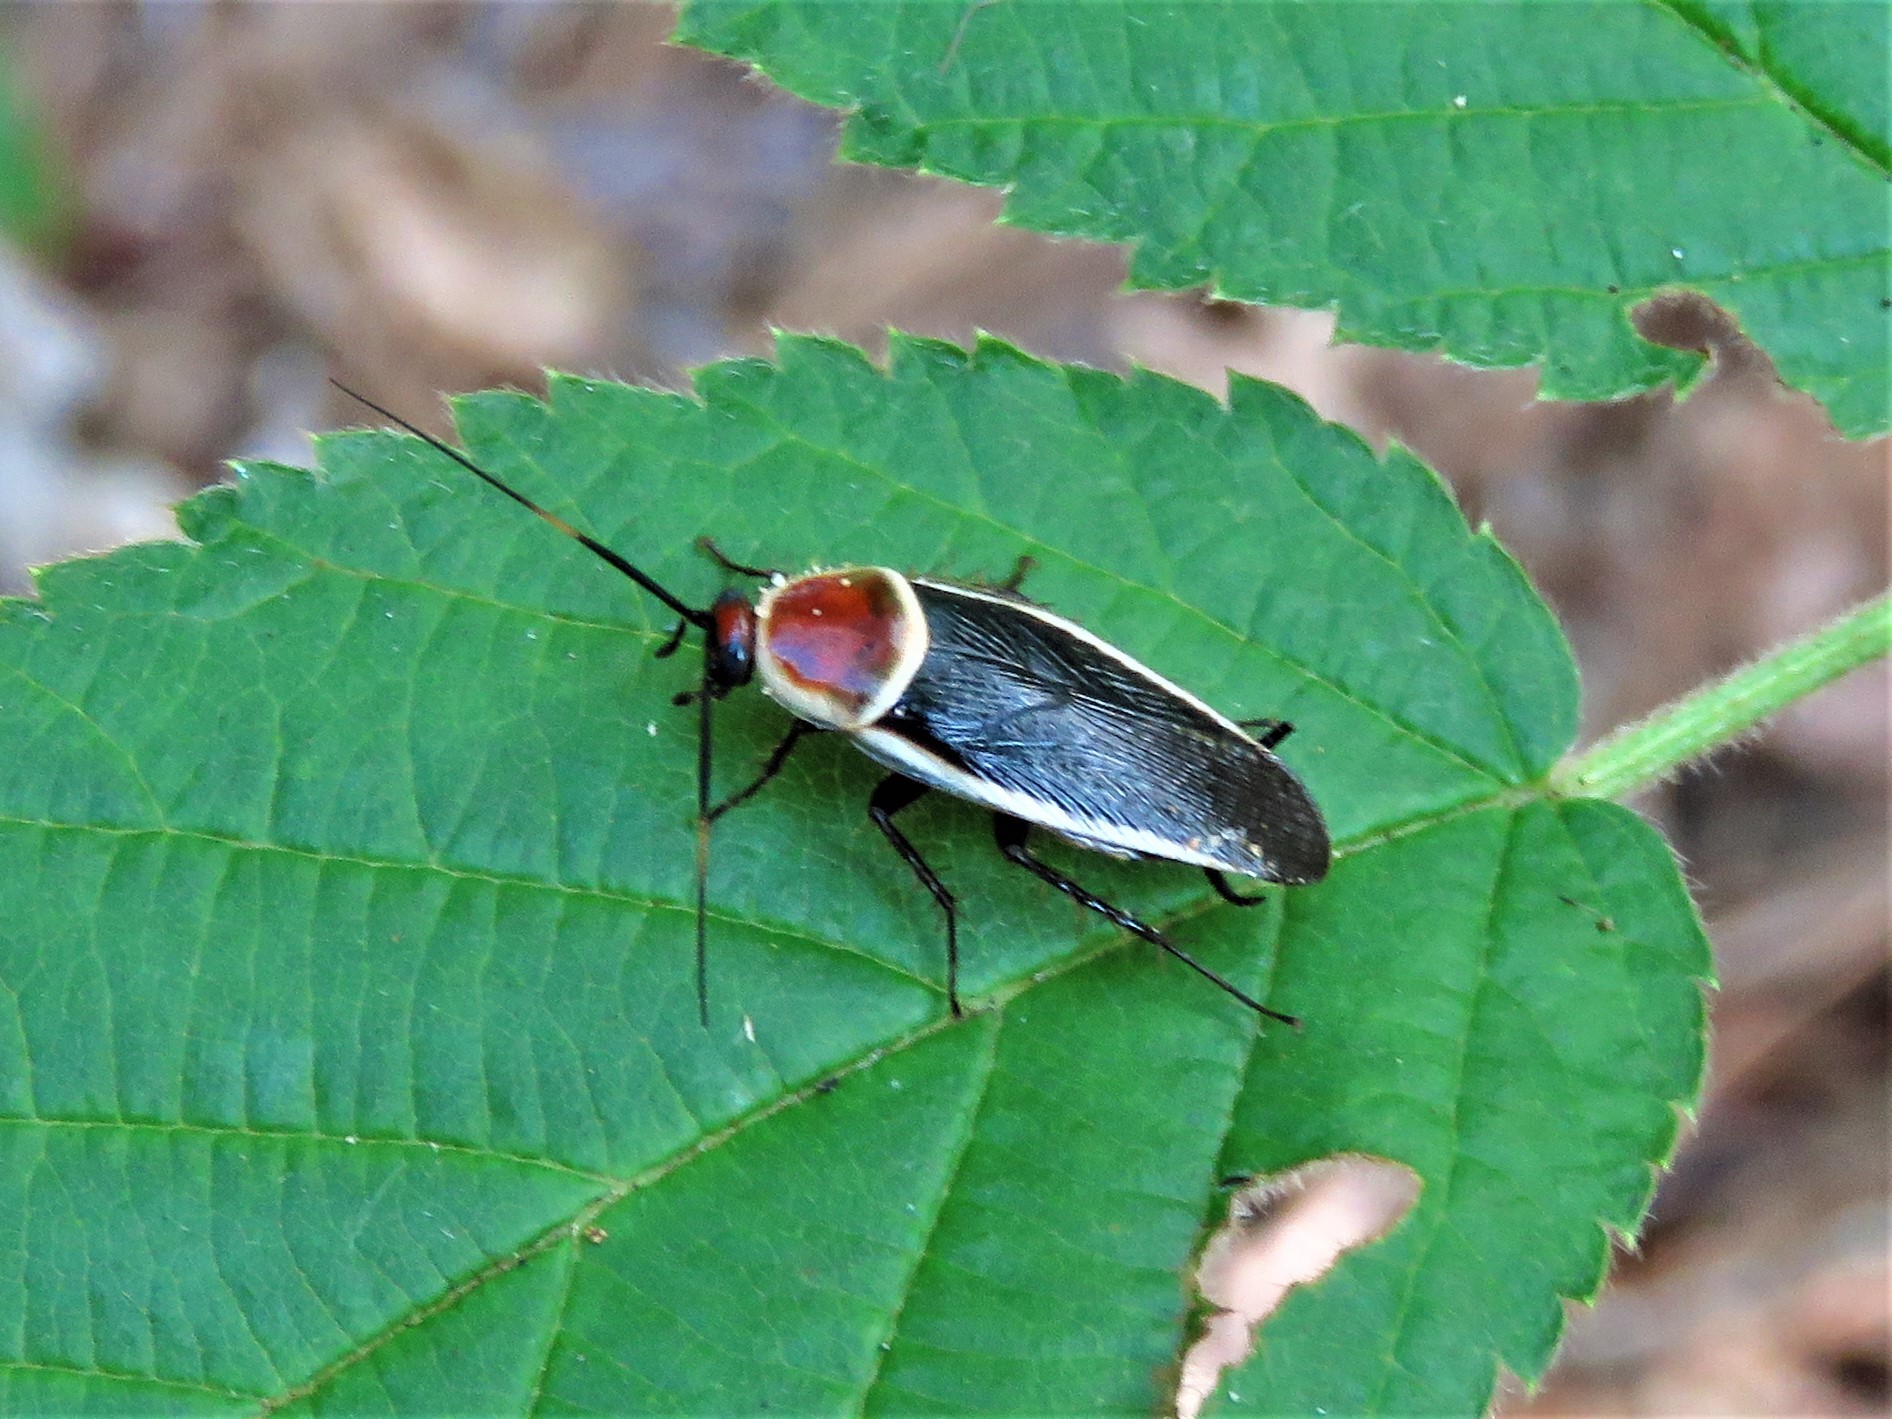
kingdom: Animalia
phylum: Arthropoda
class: Insecta
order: Blattodea
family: Ectobiidae
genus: Pseudomops
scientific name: Pseudomops septentrionalis
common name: Pale-bordered field cockroach
